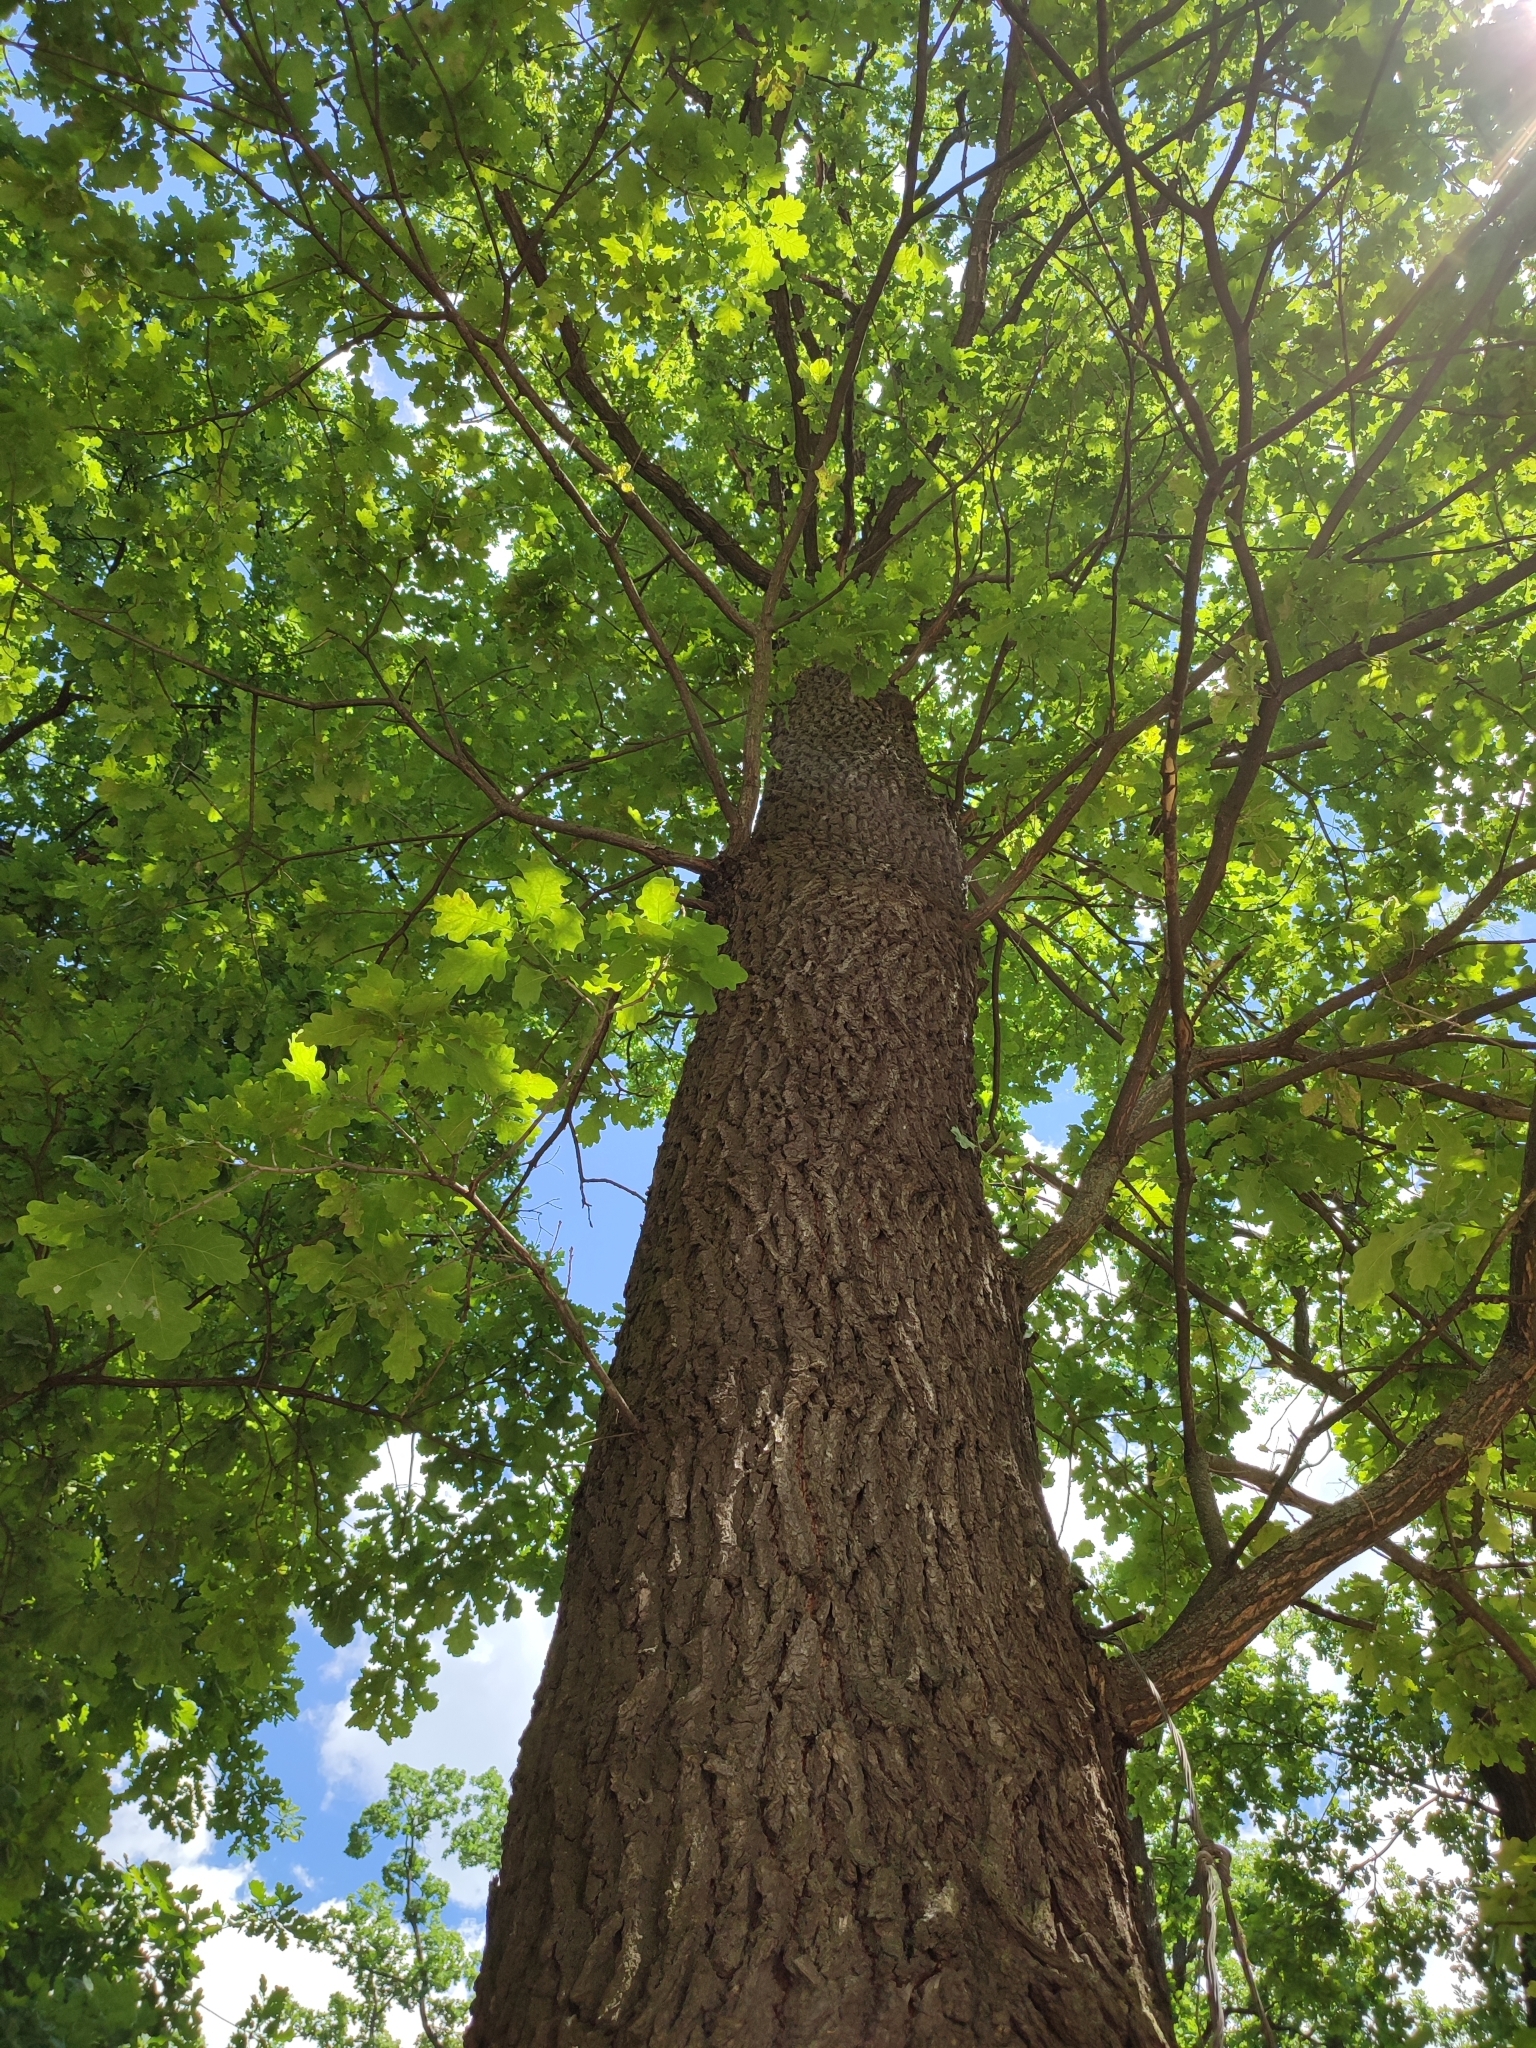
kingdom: Plantae
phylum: Tracheophyta
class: Magnoliopsida
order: Fagales
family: Fagaceae
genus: Quercus
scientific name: Quercus robur
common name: Pedunculate oak
